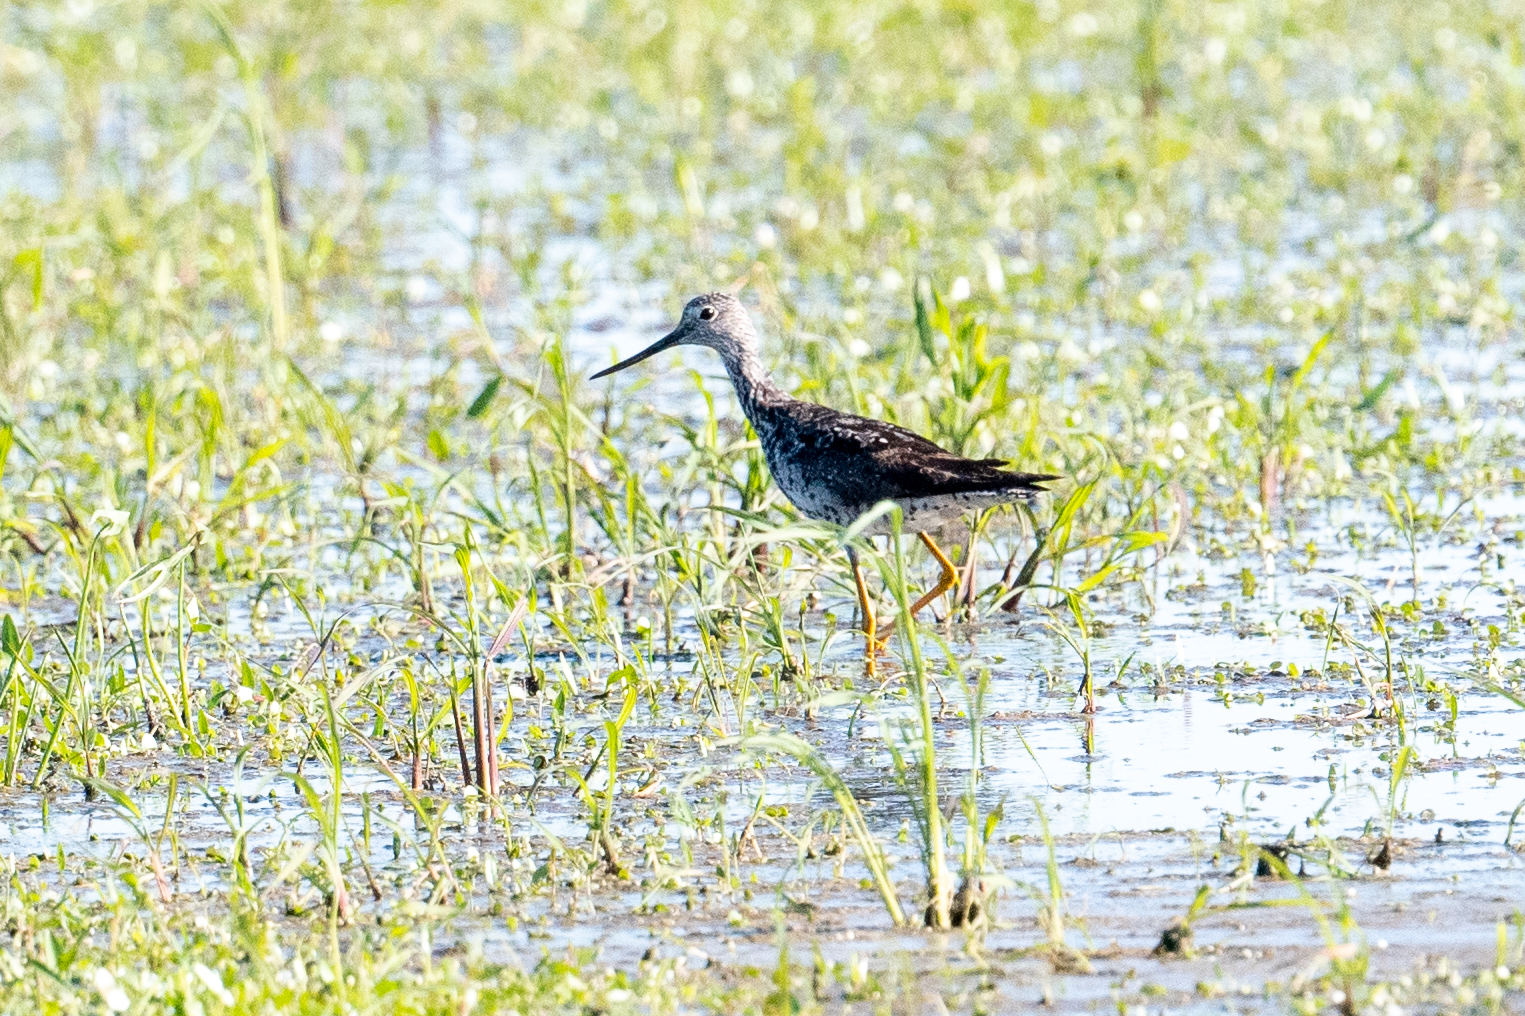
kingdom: Animalia
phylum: Chordata
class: Aves
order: Charadriiformes
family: Scolopacidae
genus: Tringa
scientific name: Tringa melanoleuca
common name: Greater yellowlegs
